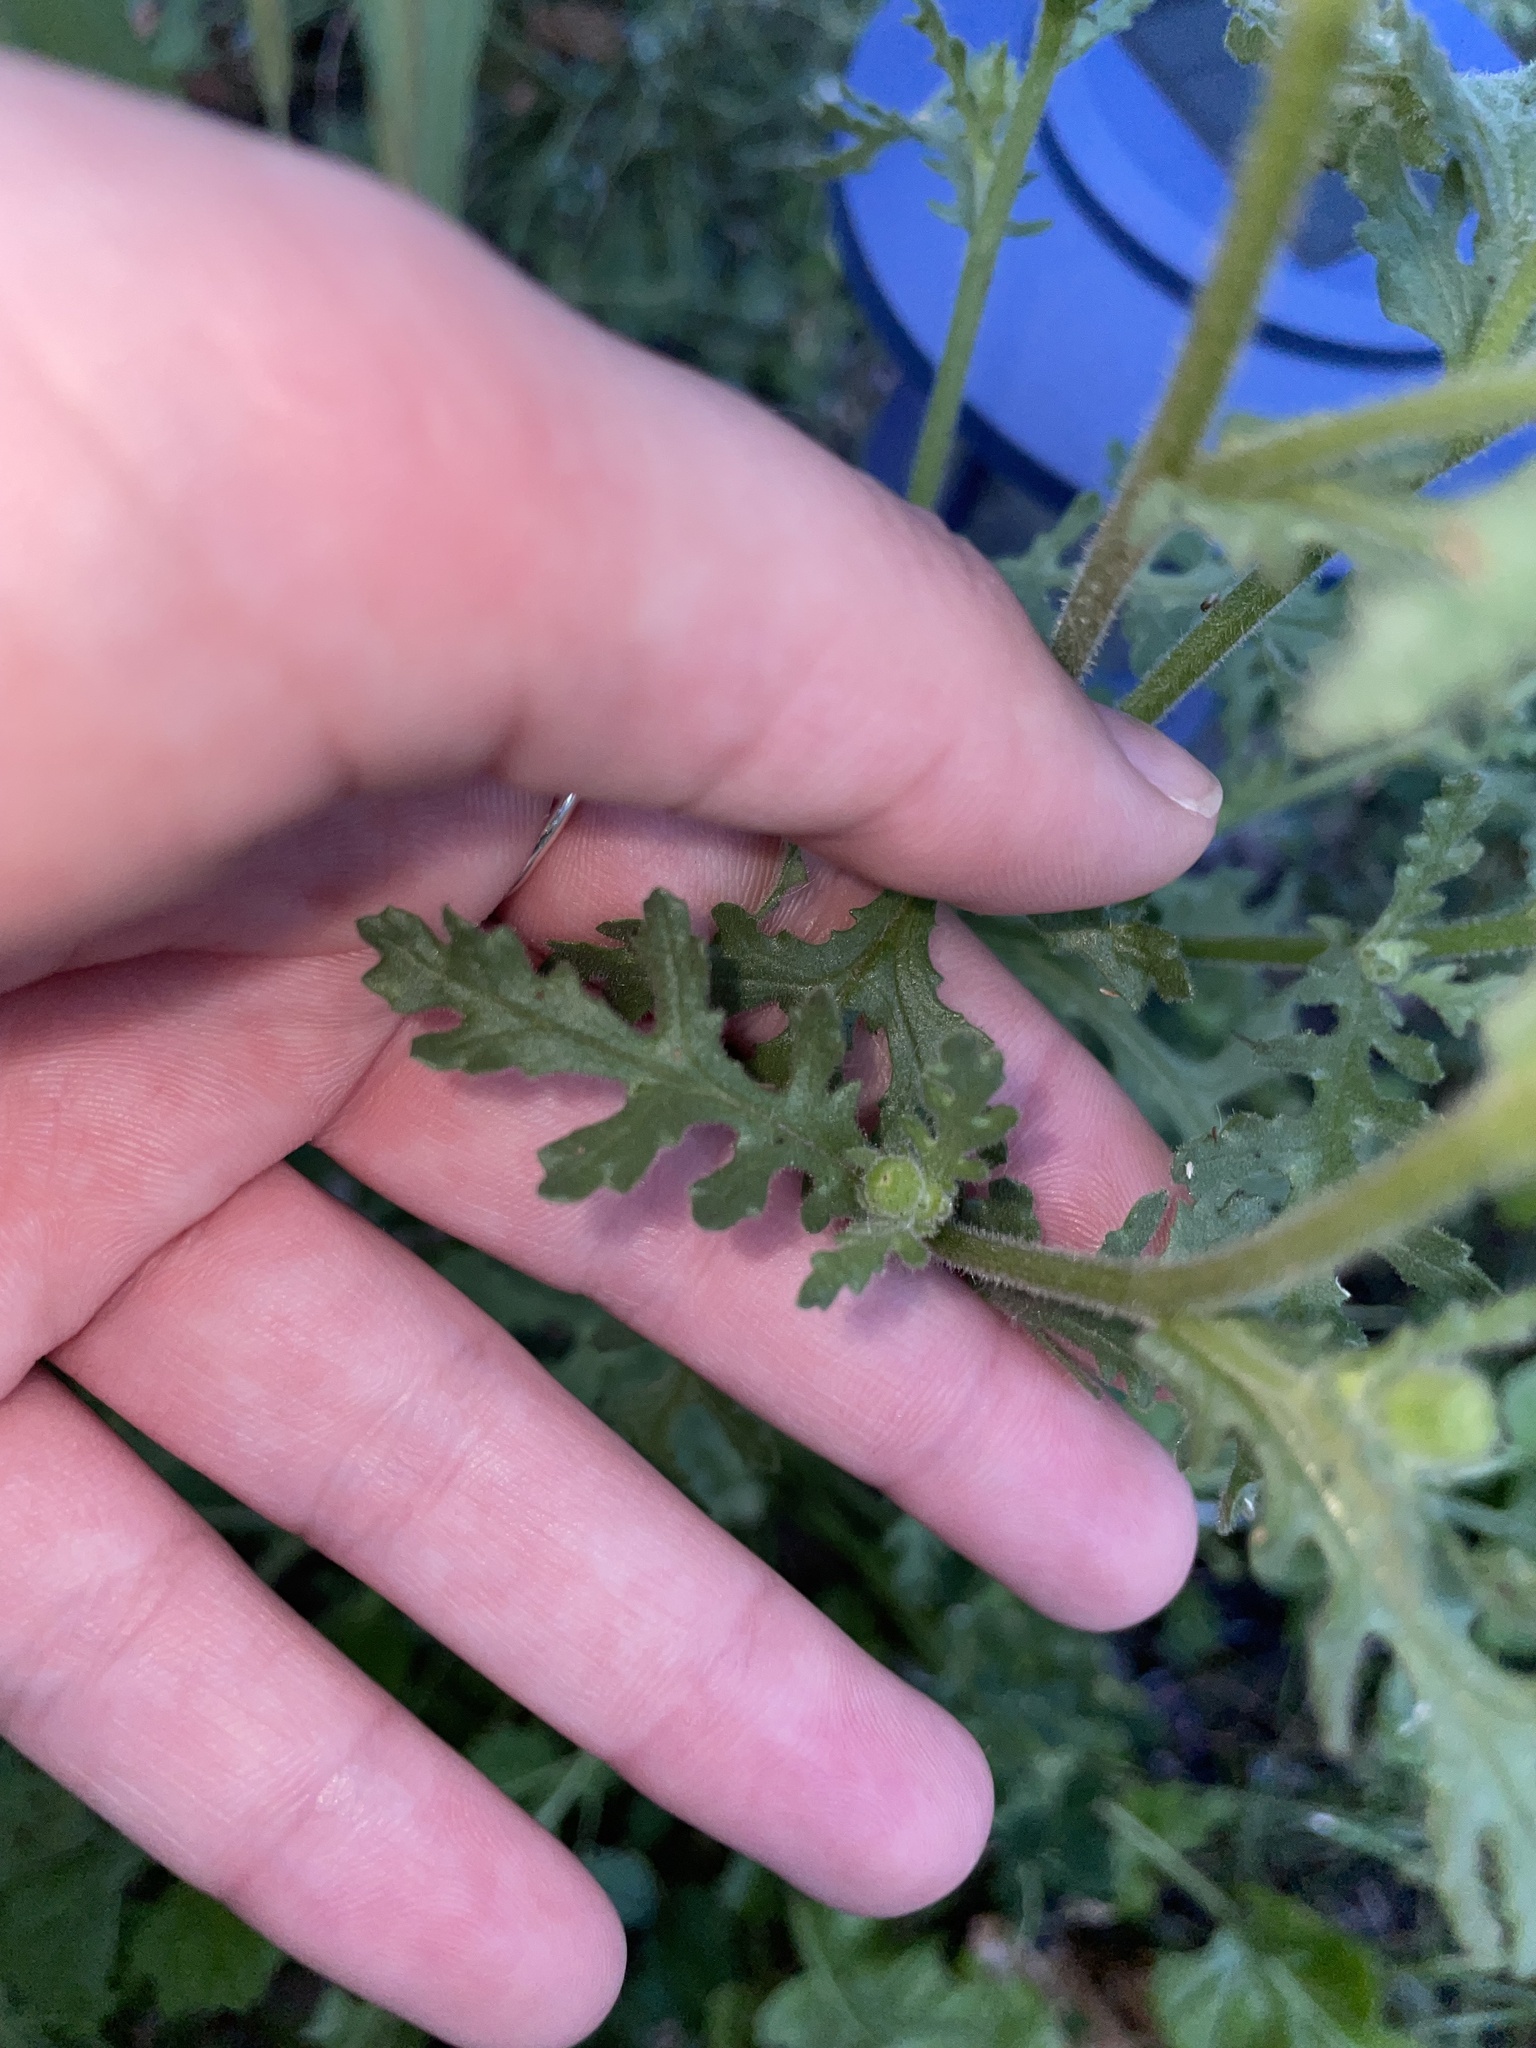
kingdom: Plantae
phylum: Tracheophyta
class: Magnoliopsida
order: Asterales
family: Asteraceae
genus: Senecio
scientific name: Senecio viscosus
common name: Sticky groundsel
